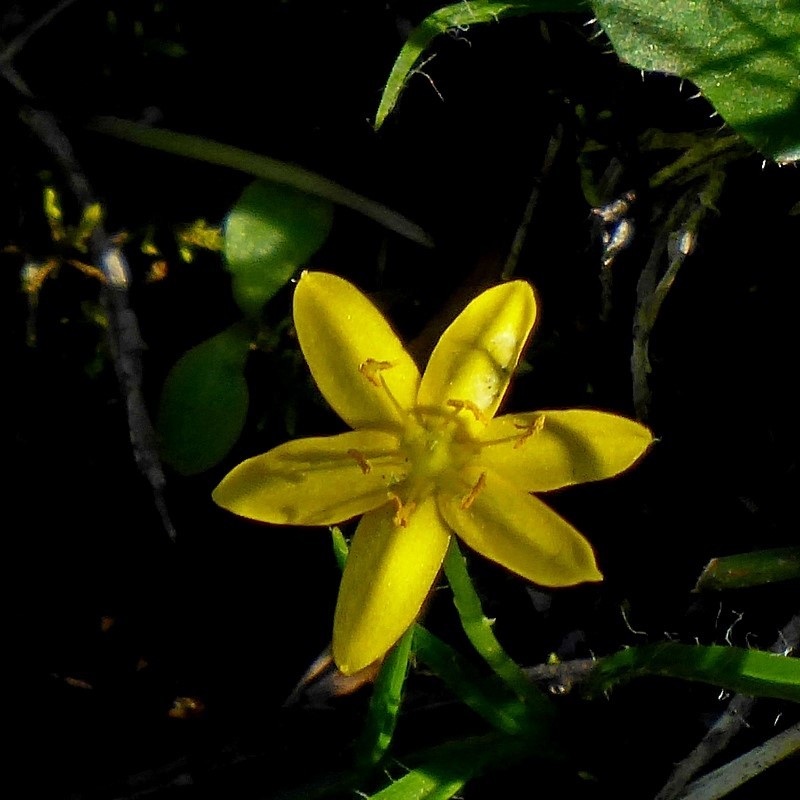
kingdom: Plantae
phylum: Tracheophyta
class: Liliopsida
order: Asparagales
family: Hypoxidaceae
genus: Hypoxis
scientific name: Hypoxis hygrometrica
